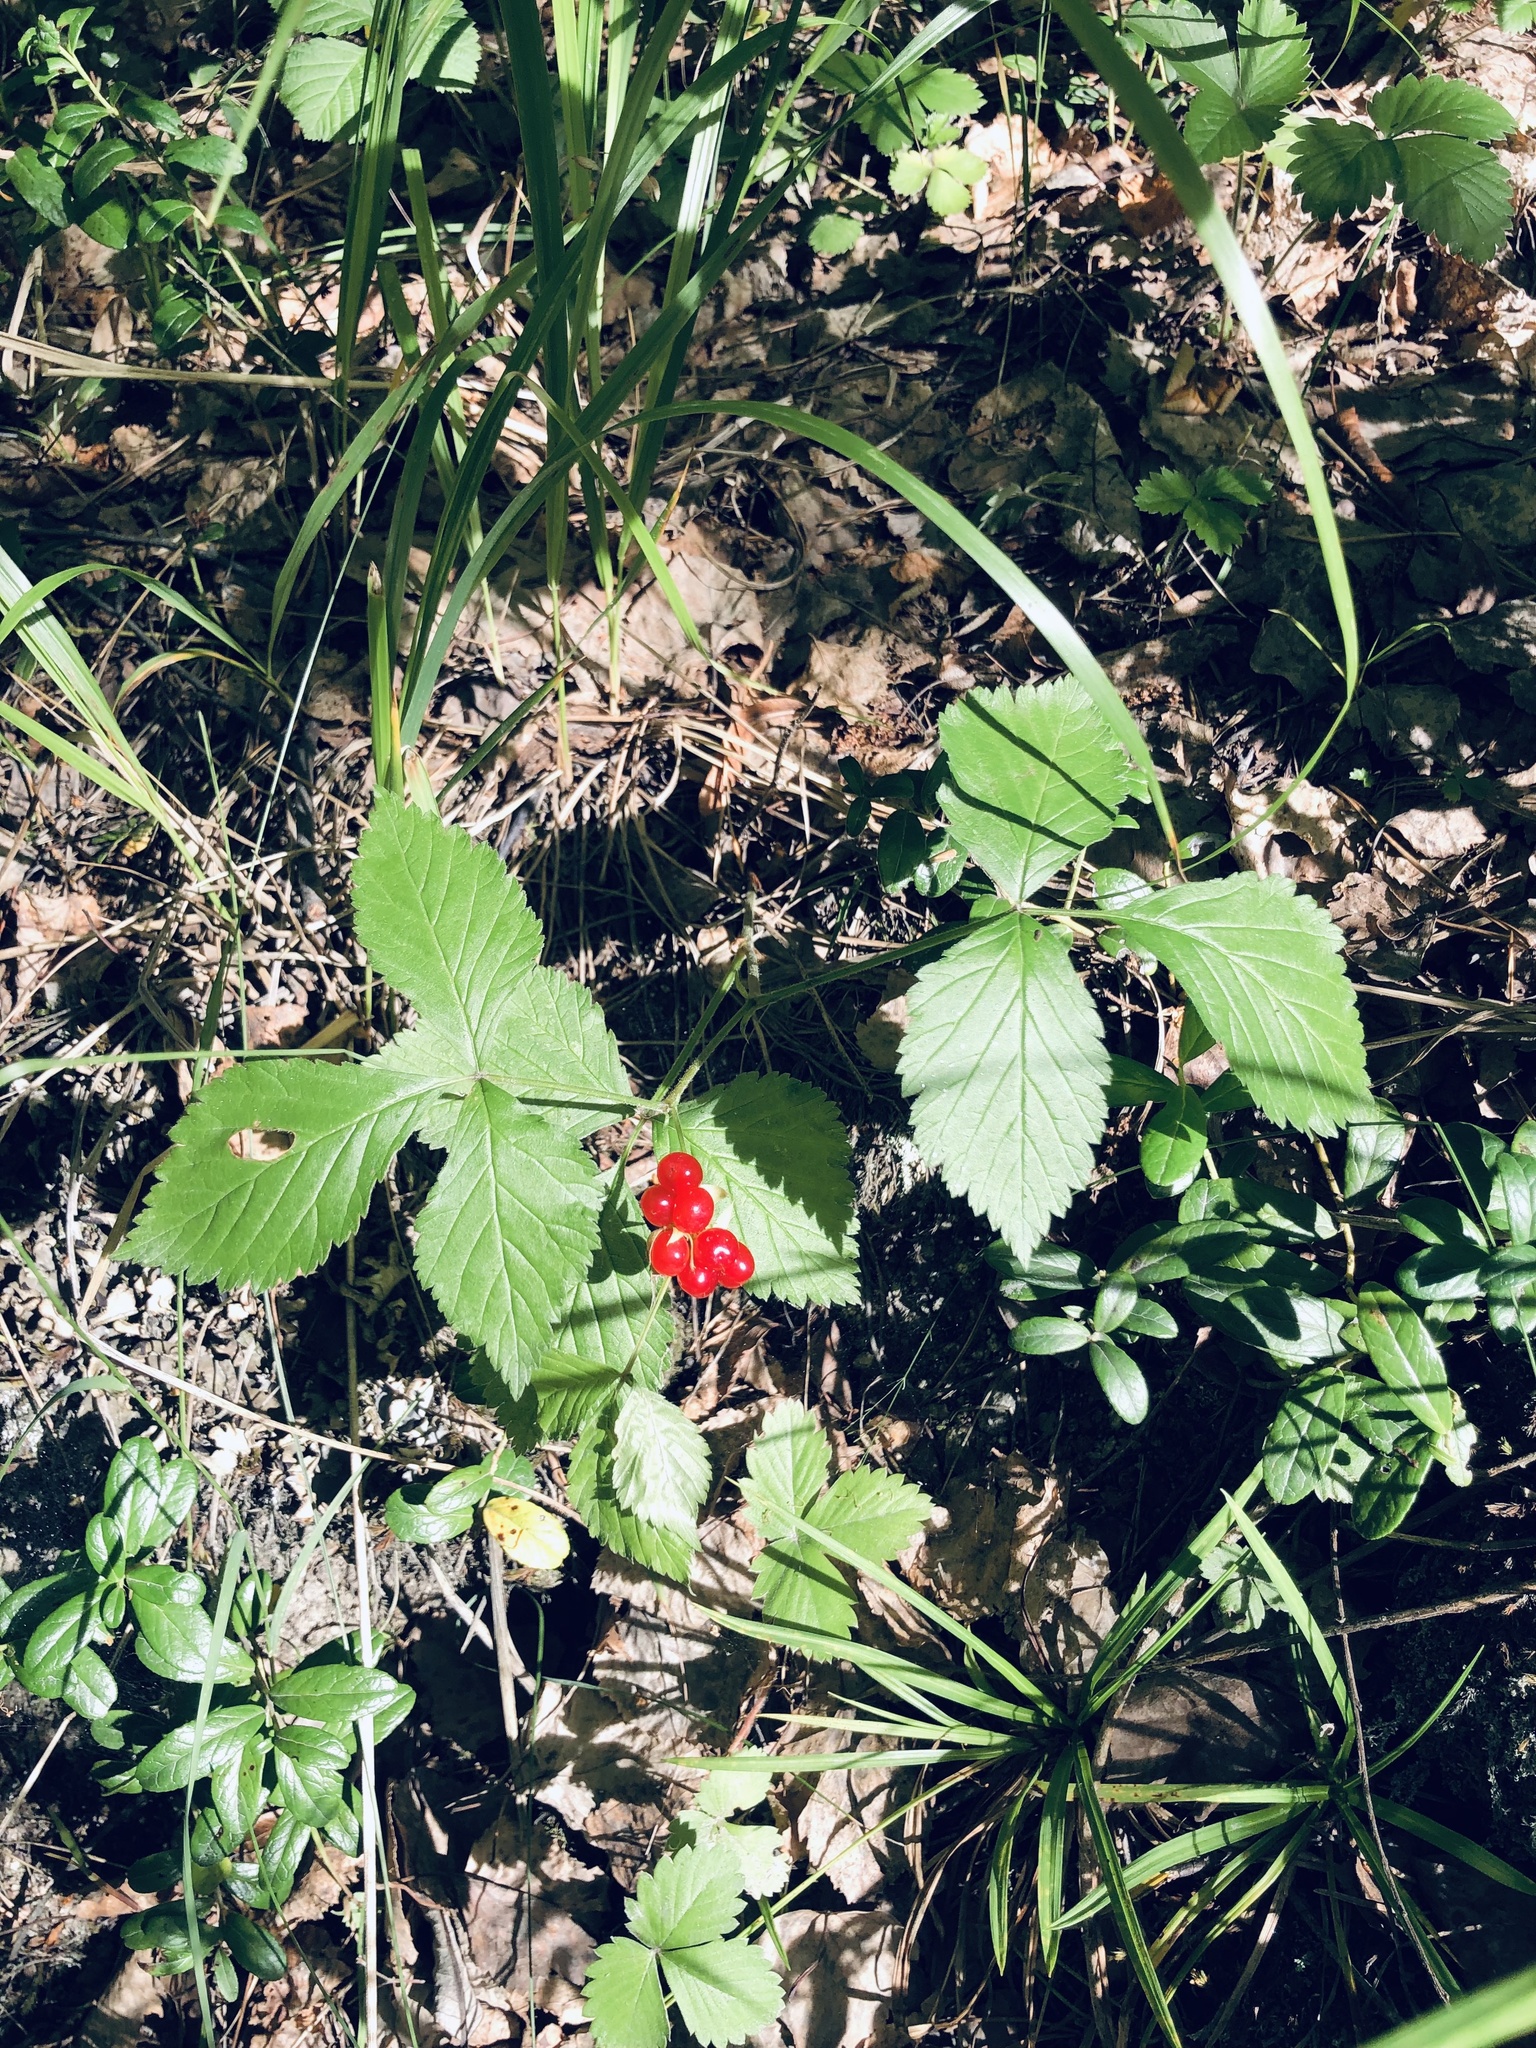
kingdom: Plantae
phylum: Tracheophyta
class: Magnoliopsida
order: Rosales
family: Rosaceae
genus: Rubus
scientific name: Rubus saxatilis
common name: Stone bramble
